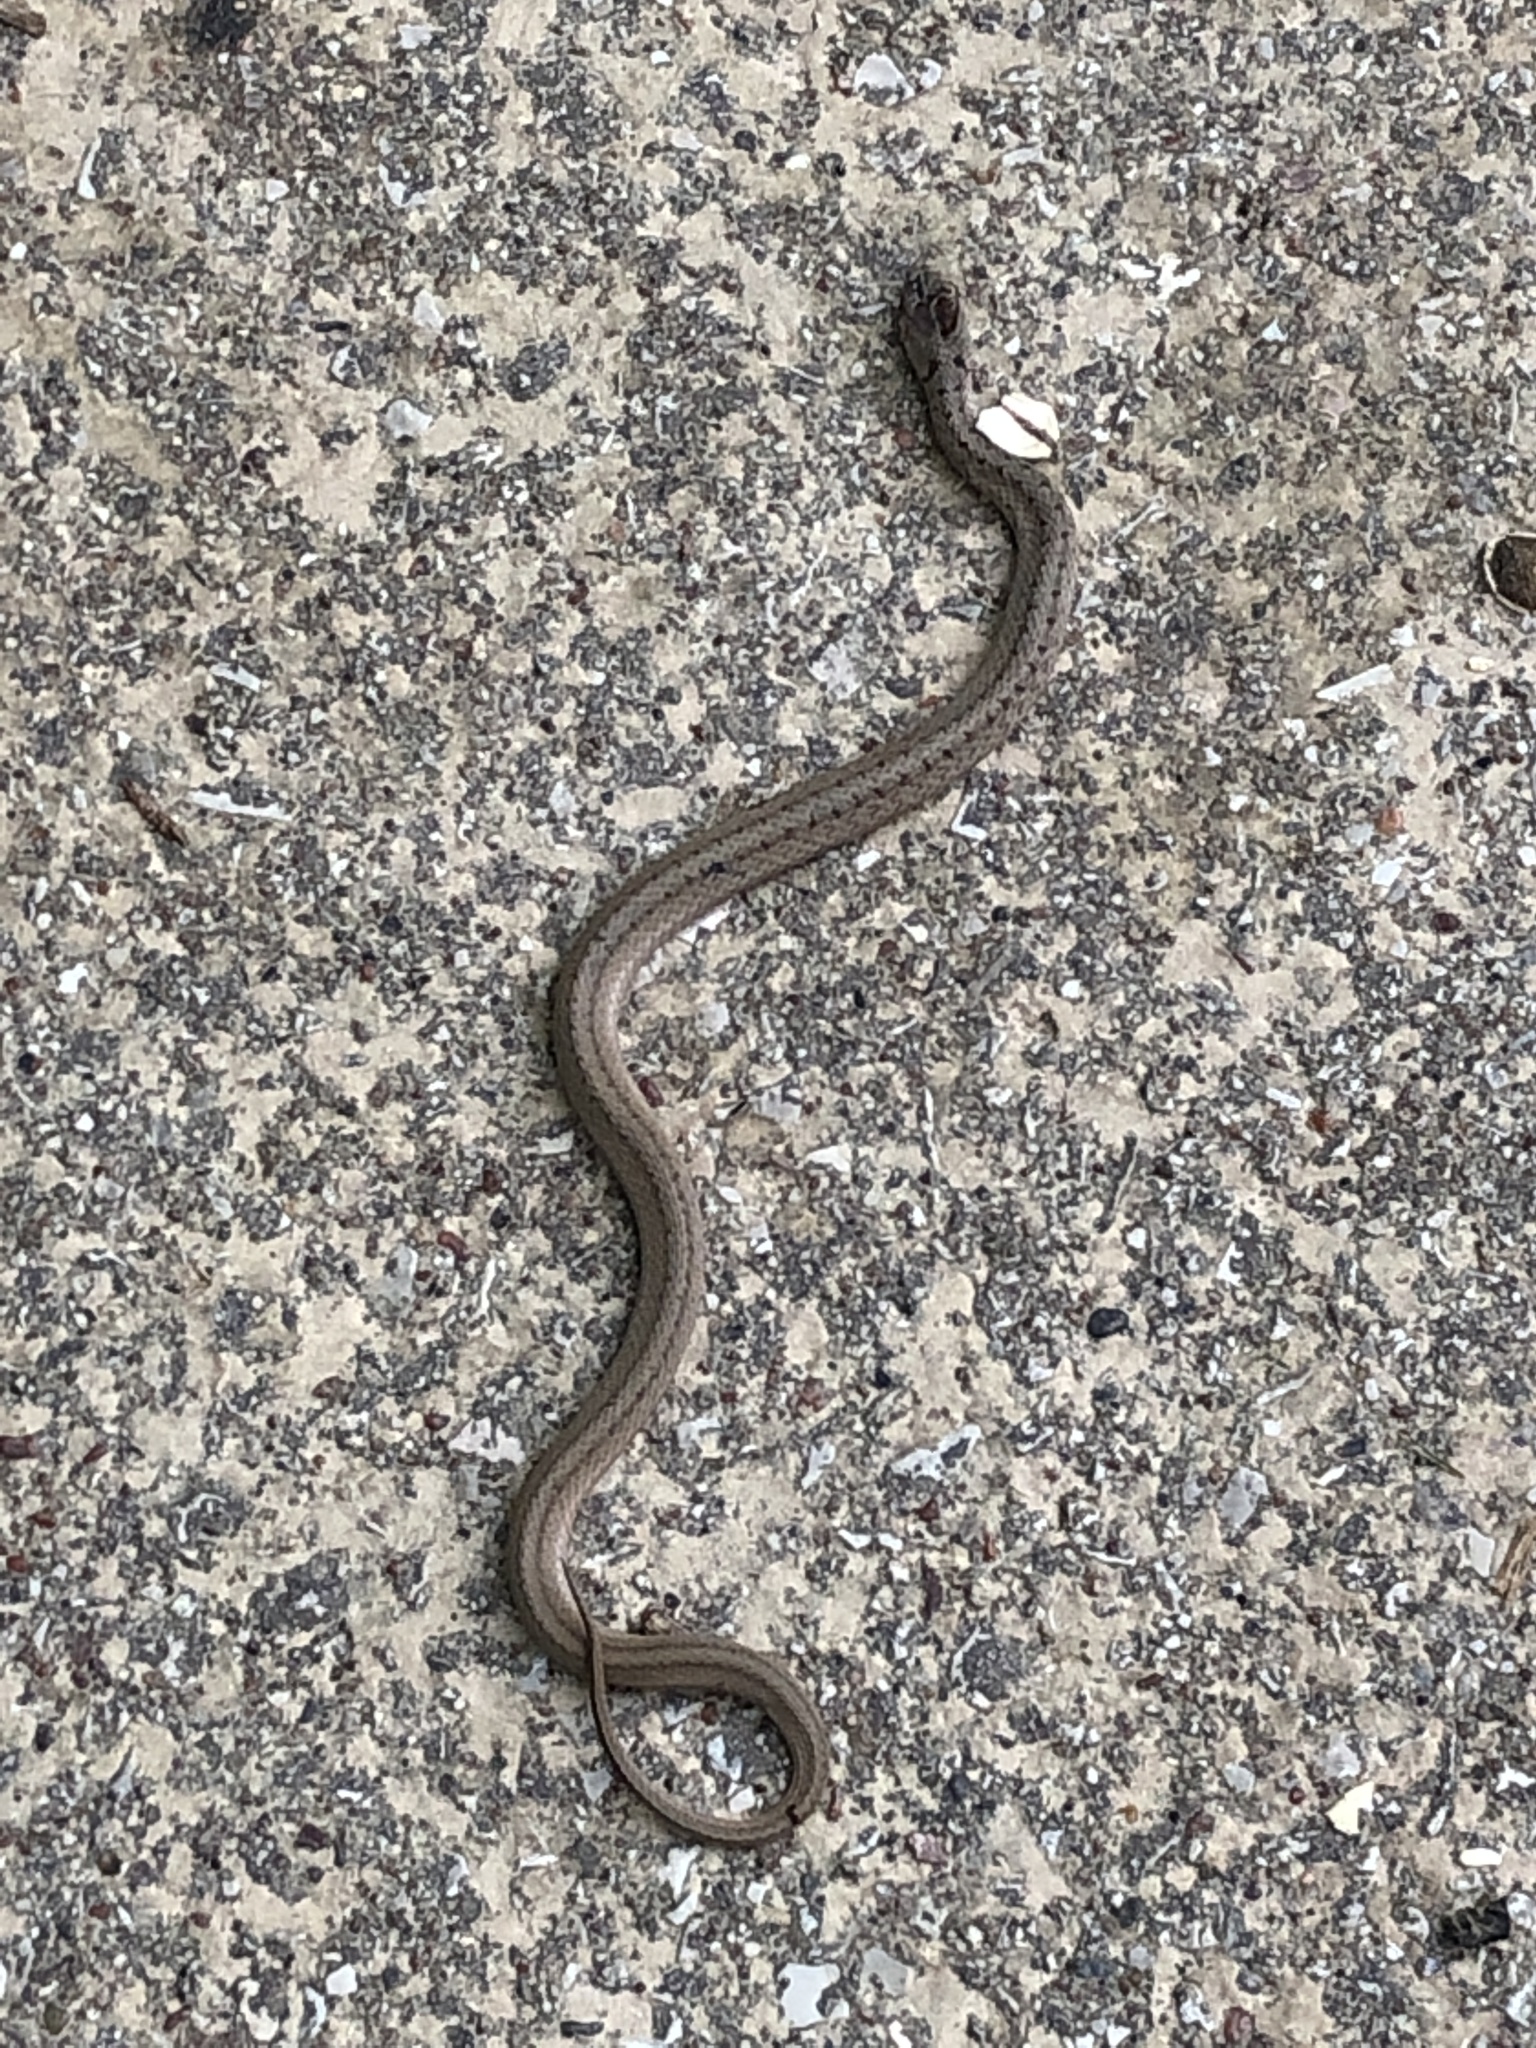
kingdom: Animalia
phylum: Chordata
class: Squamata
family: Colubridae
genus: Storeria
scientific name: Storeria dekayi
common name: (dekay’s) brown snake
